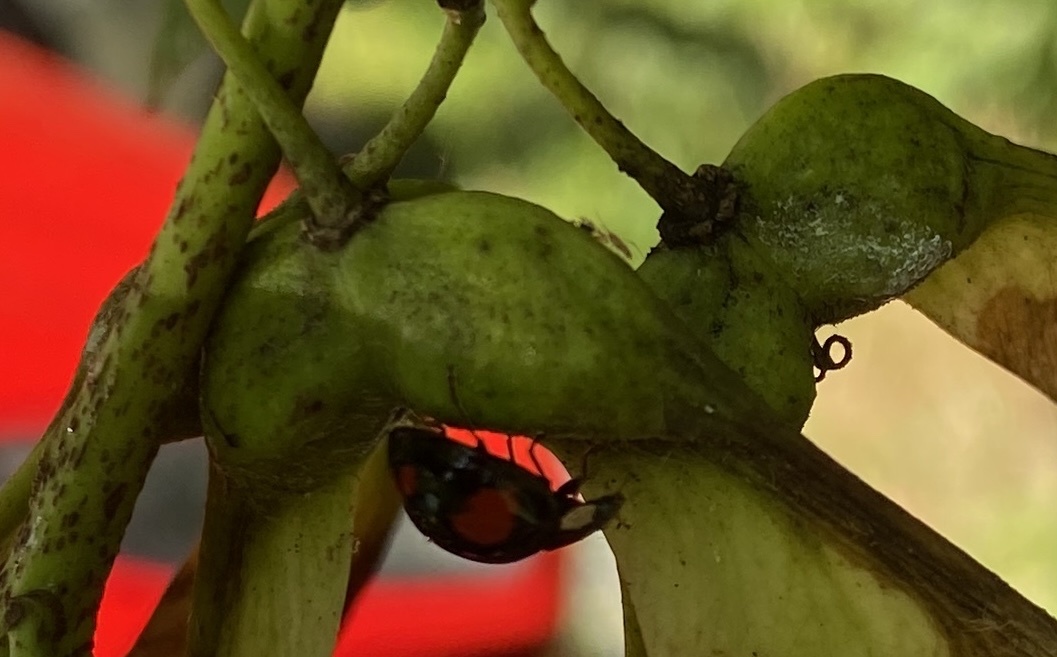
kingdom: Animalia
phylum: Arthropoda
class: Insecta
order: Coleoptera
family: Coccinellidae
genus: Harmonia
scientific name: Harmonia axyridis
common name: Harlequin ladybird
